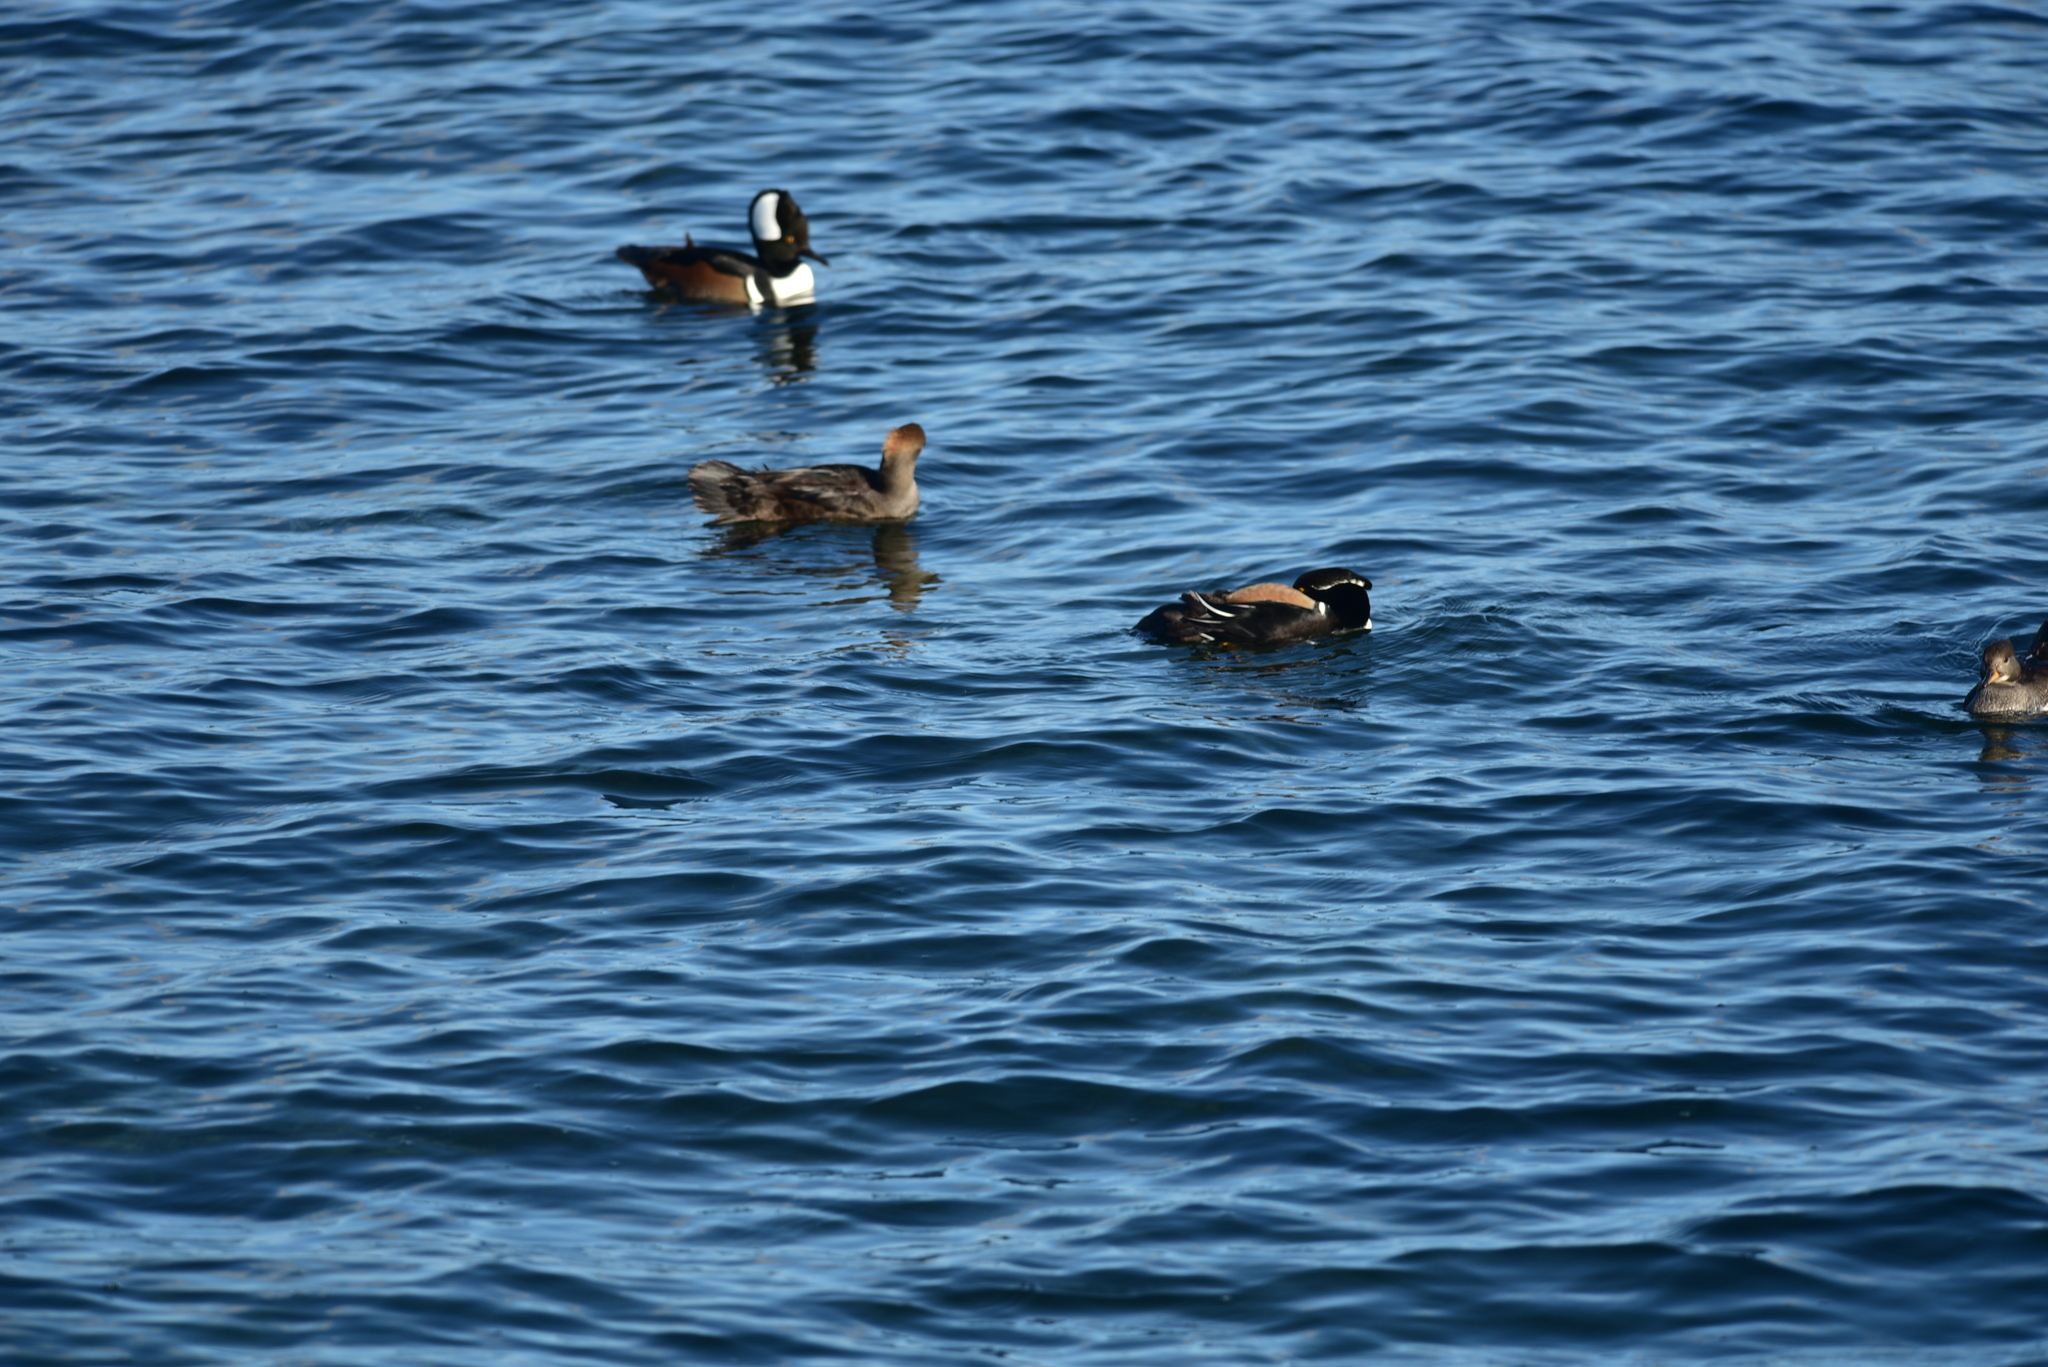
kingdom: Animalia
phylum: Chordata
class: Aves
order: Anseriformes
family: Anatidae
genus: Lophodytes
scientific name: Lophodytes cucullatus
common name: Hooded merganser
